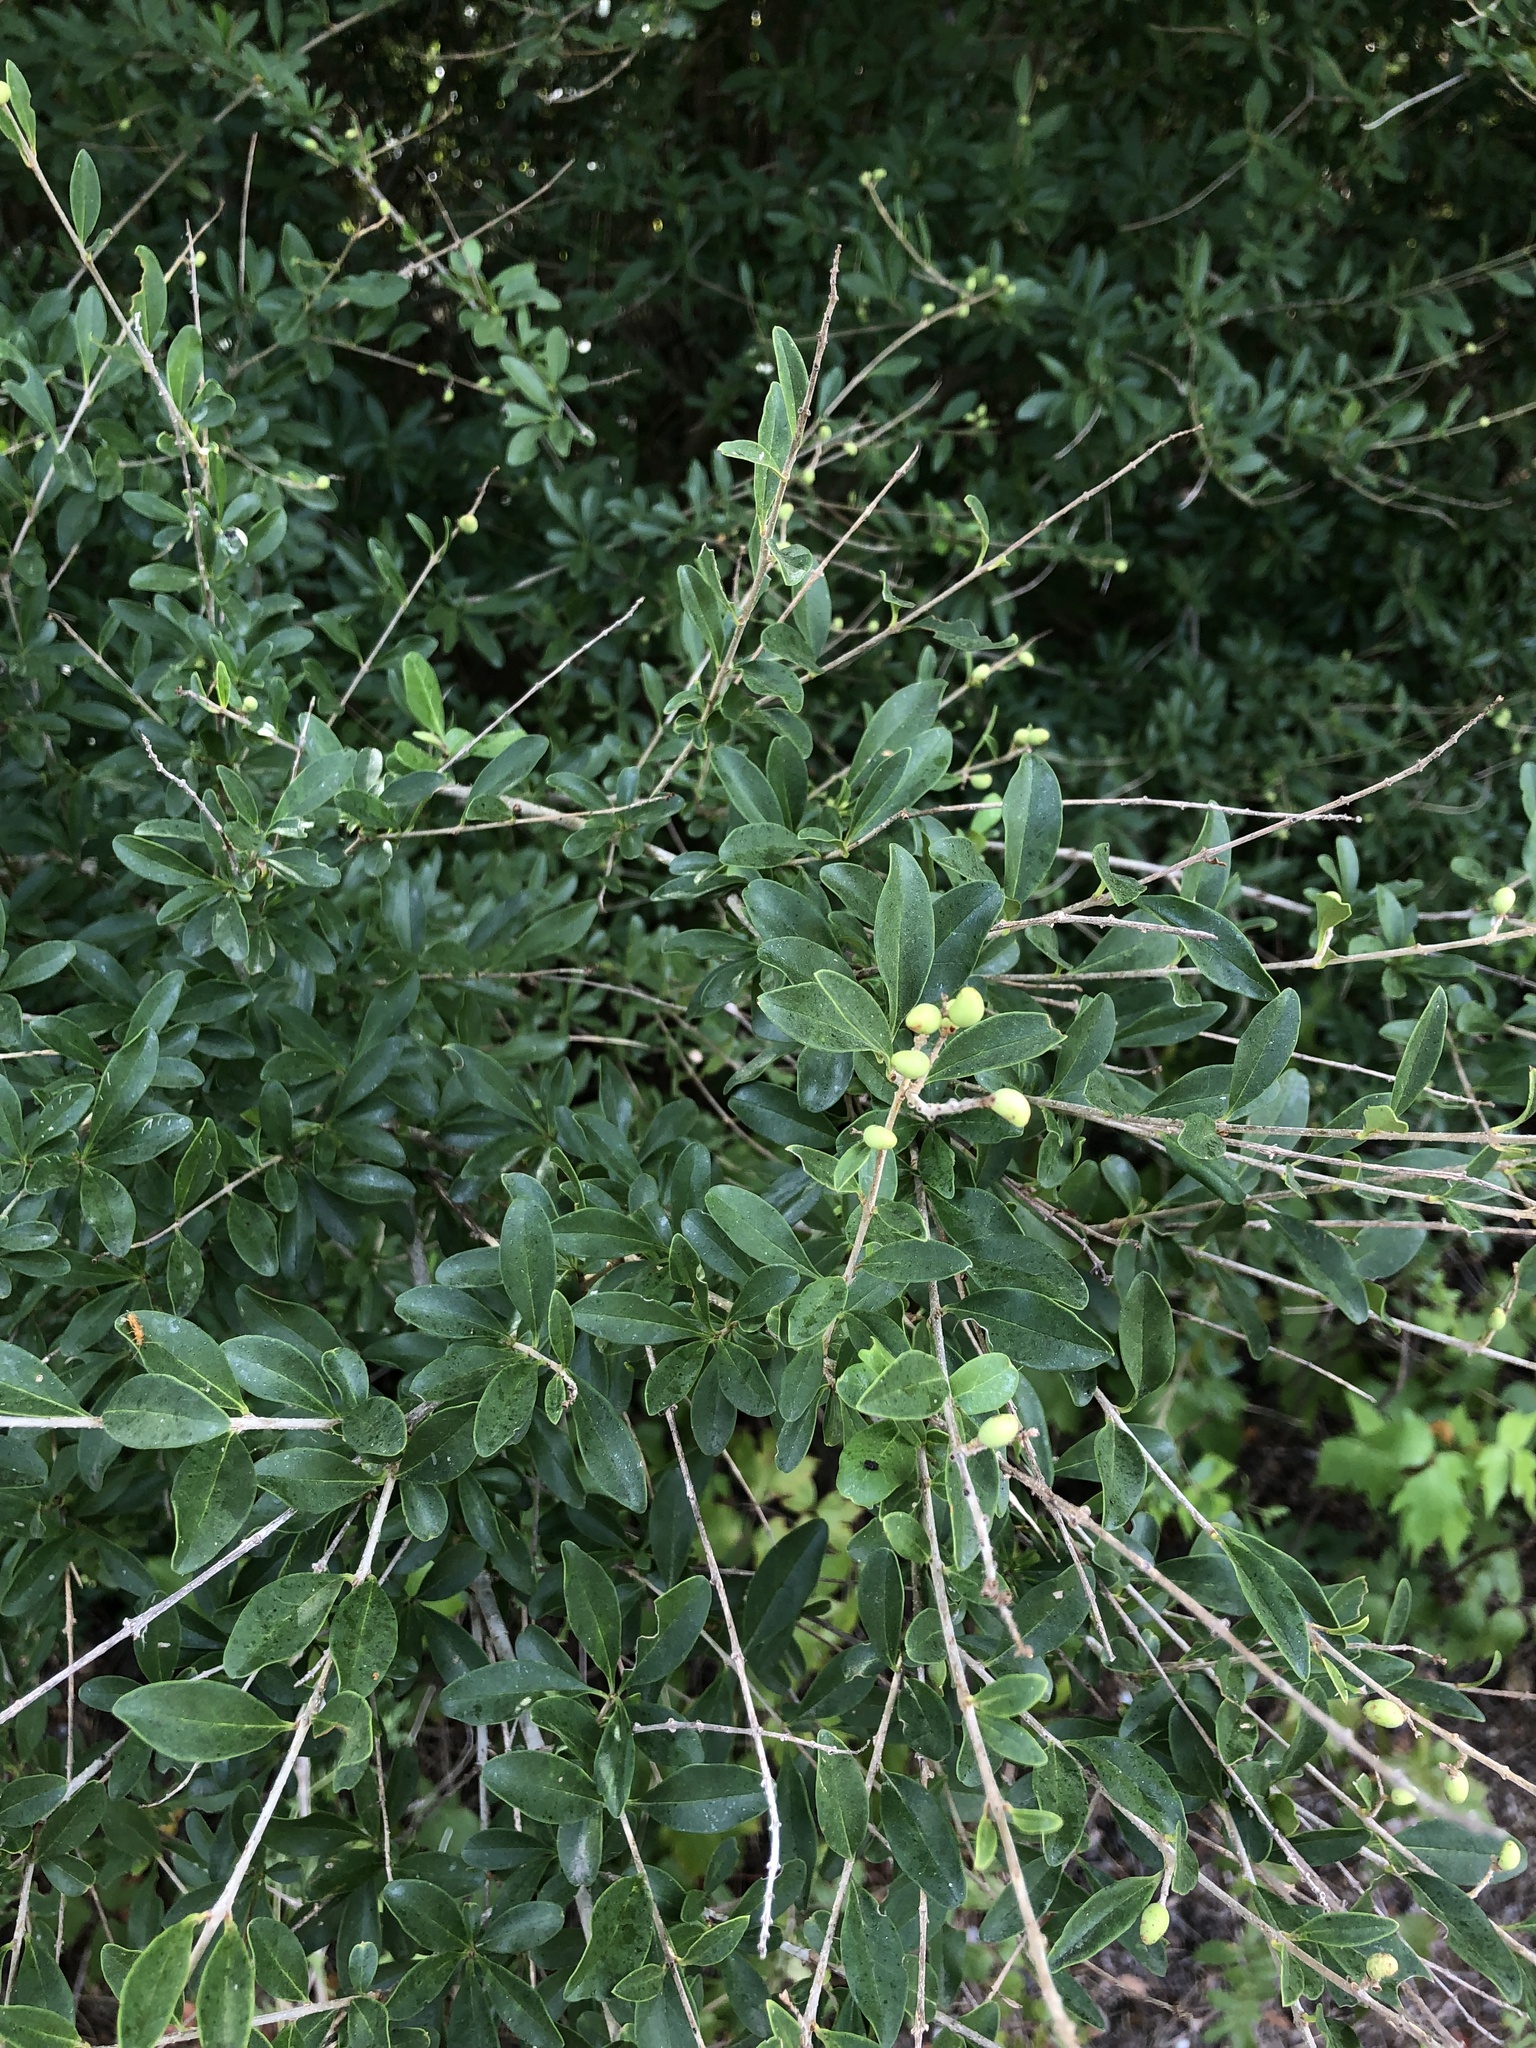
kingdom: Plantae
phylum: Tracheophyta
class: Magnoliopsida
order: Lamiales
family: Oleaceae
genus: Ligustrum
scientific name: Ligustrum quihoui
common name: Waxyleaf privet
